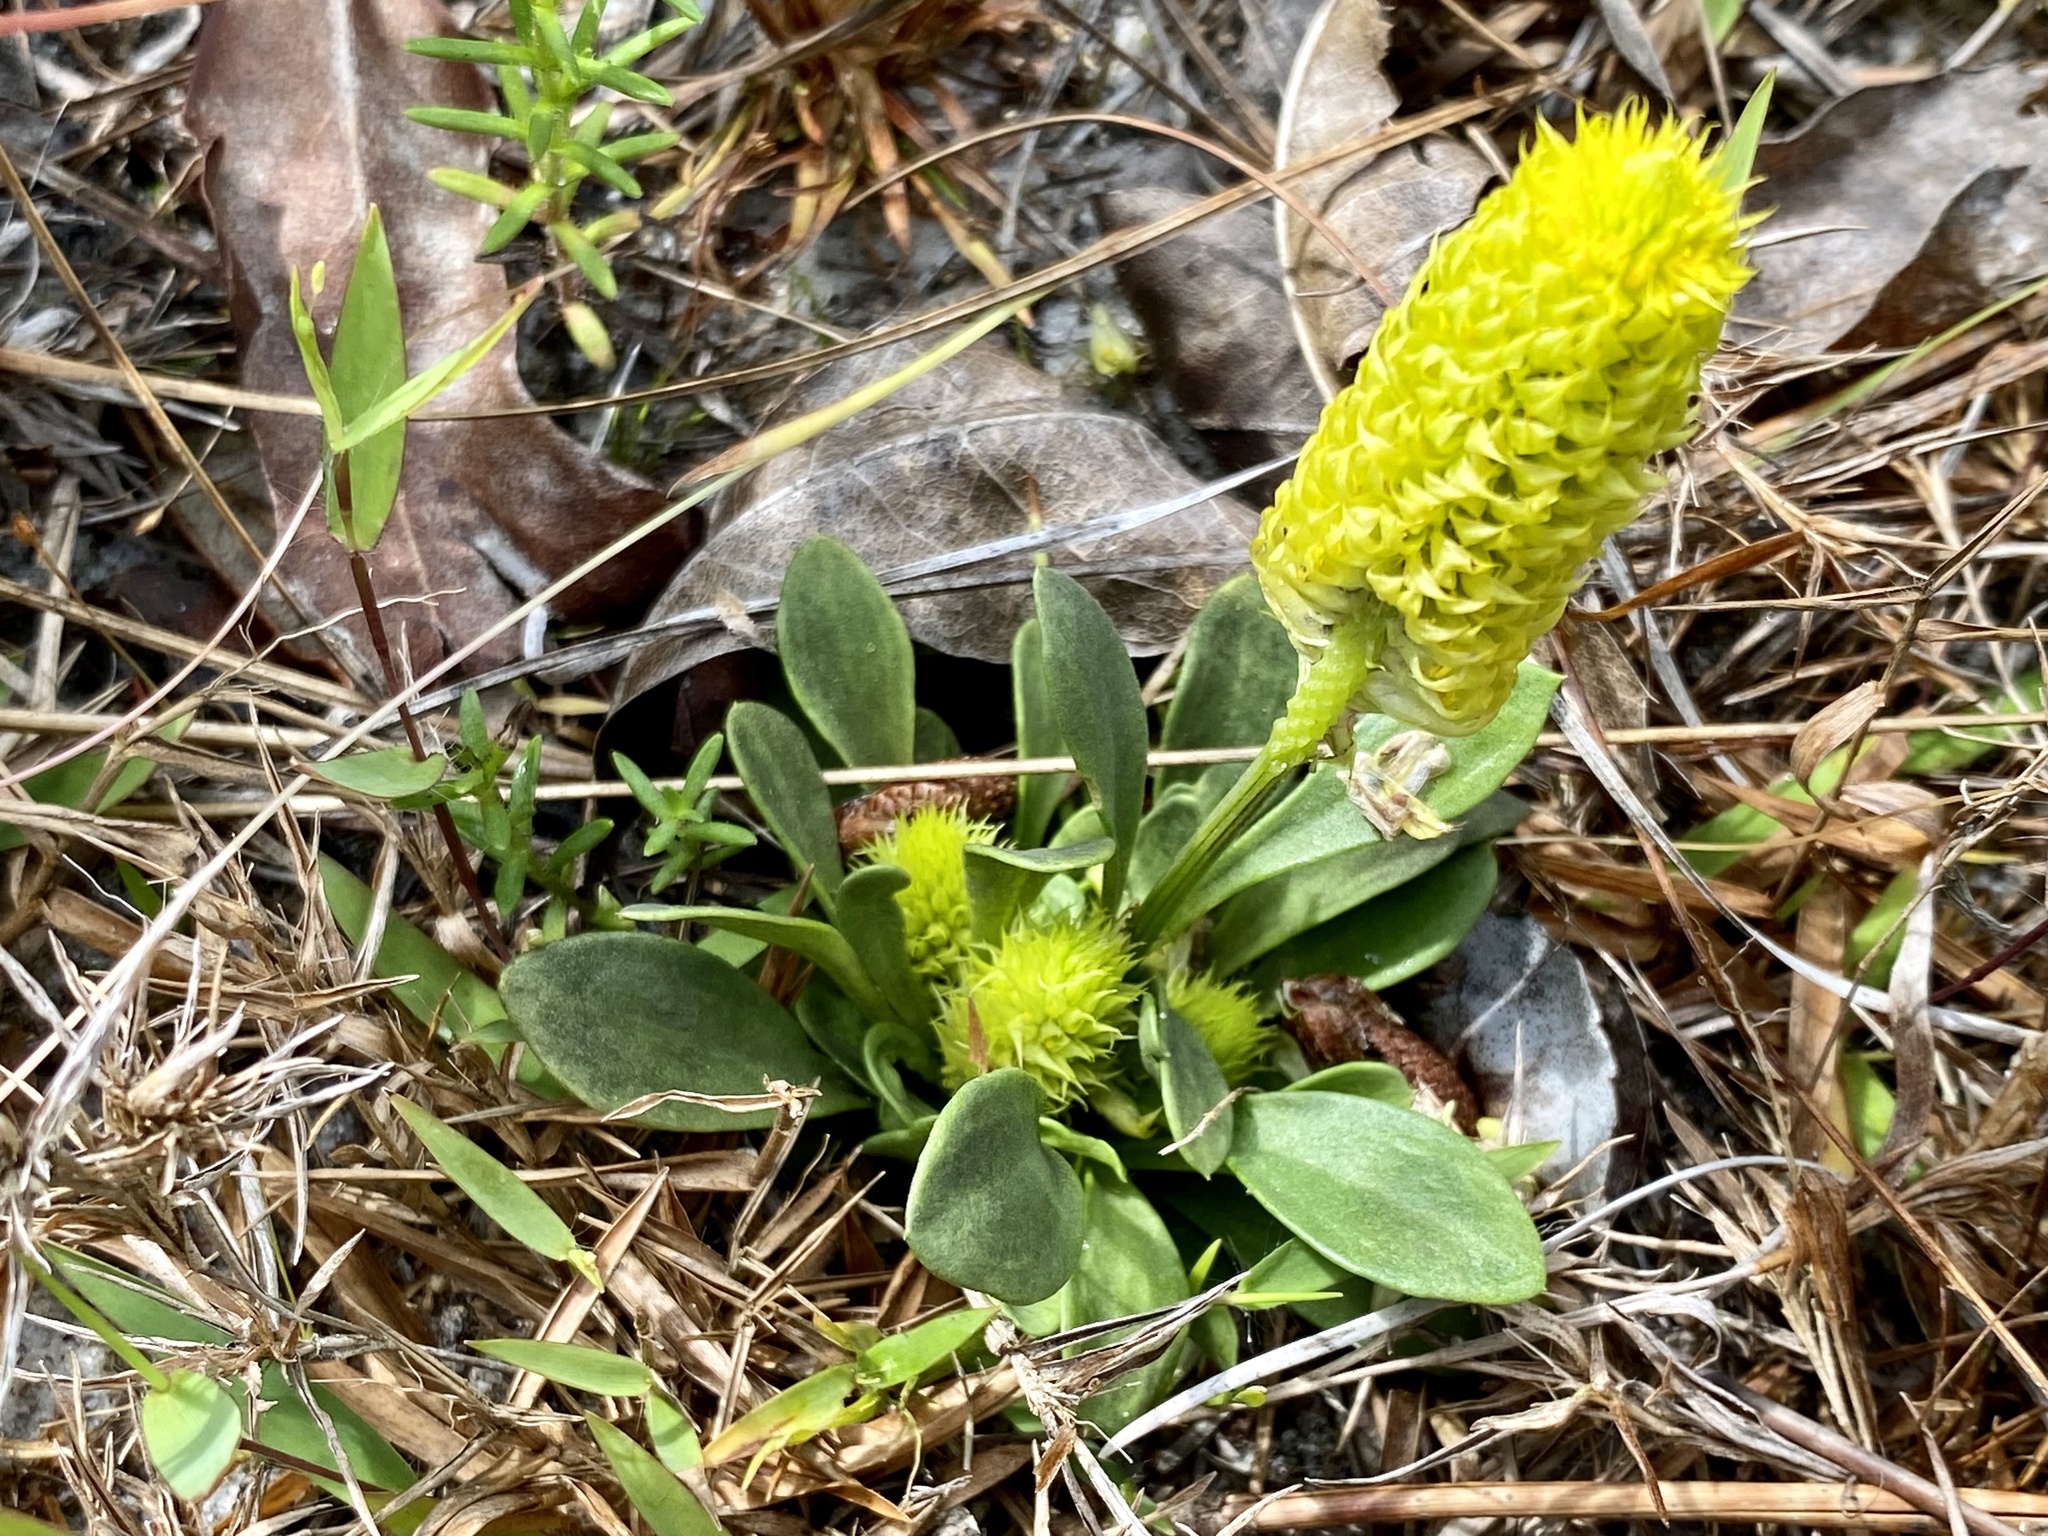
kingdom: Plantae
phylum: Tracheophyta
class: Magnoliopsida
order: Fabales
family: Polygalaceae
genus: Polygala
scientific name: Polygala nana
